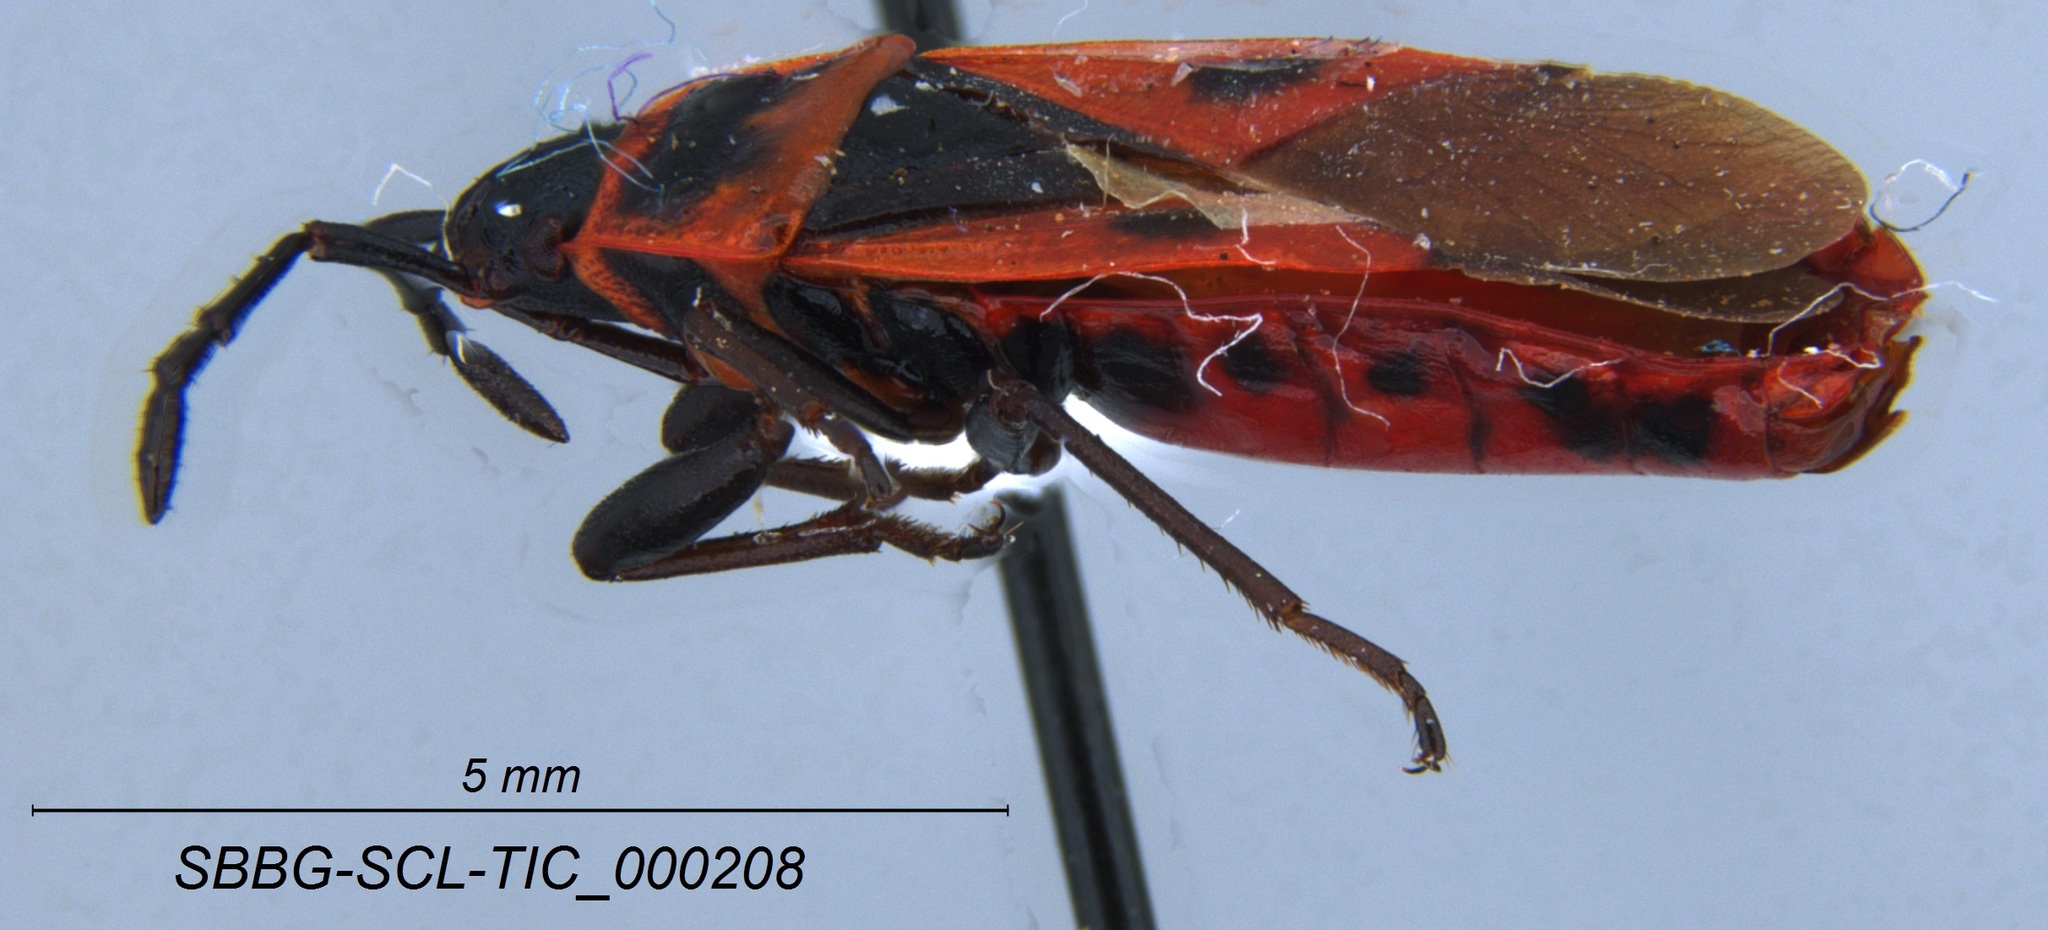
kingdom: Animalia
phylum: Arthropoda
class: Insecta
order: Hemiptera
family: Pyrrhocoridae
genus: Scantius
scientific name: Scantius aegyptius
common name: Red bug
